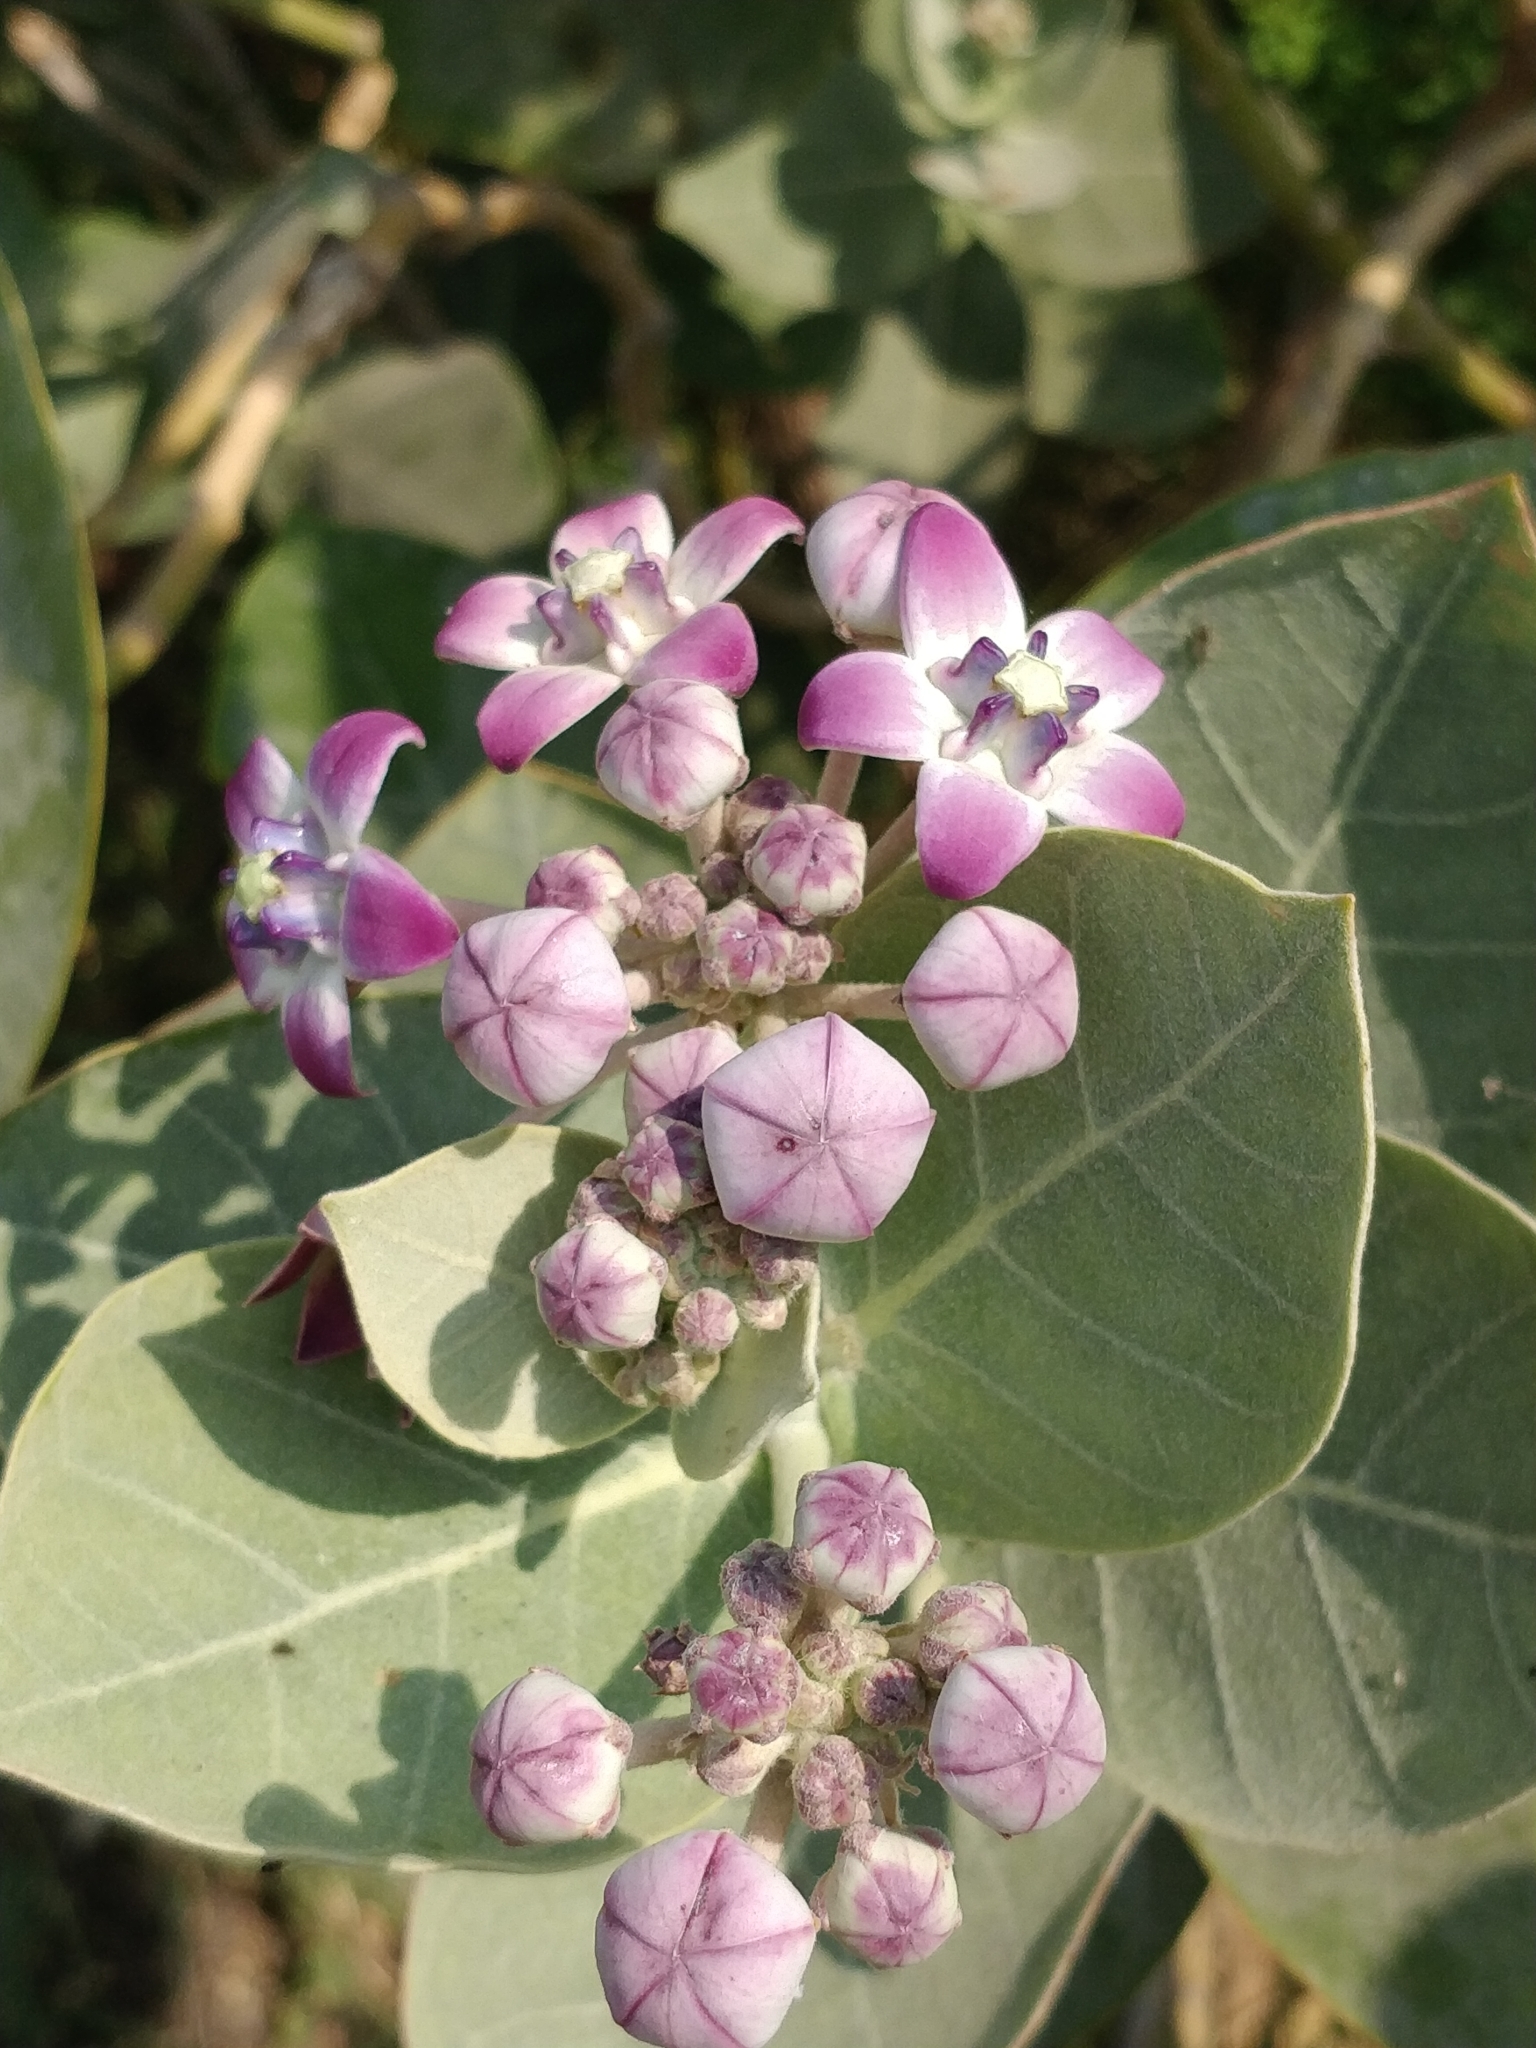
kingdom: Plantae
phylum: Tracheophyta
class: Magnoliopsida
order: Gentianales
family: Apocynaceae
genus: Calotropis
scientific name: Calotropis procera
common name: Roostertree
